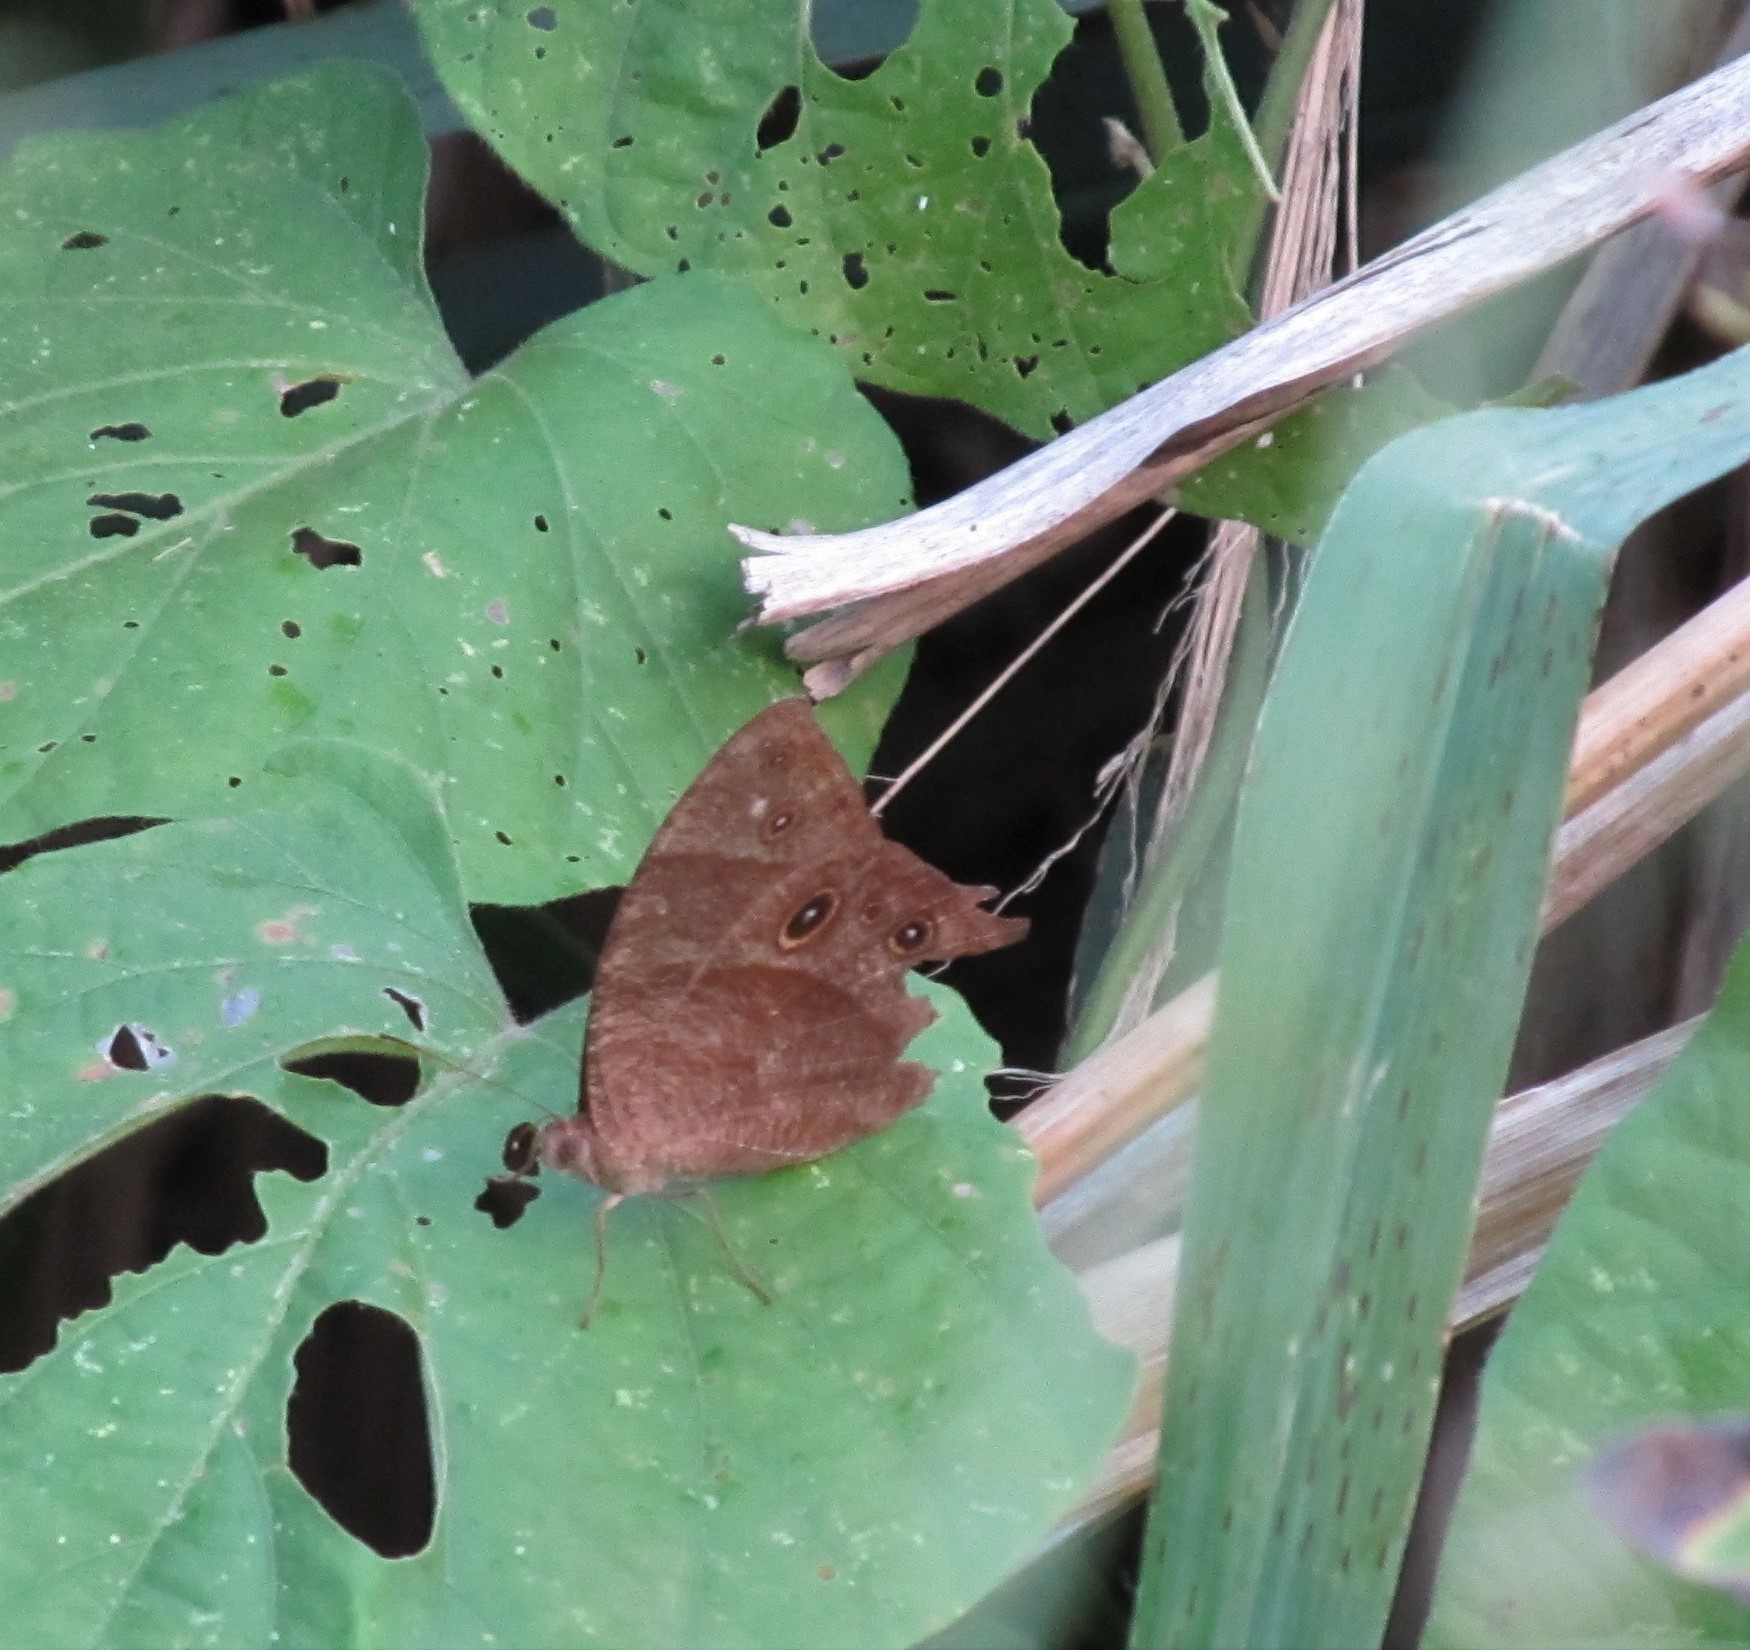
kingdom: Animalia
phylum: Arthropoda
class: Insecta
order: Lepidoptera
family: Nymphalidae
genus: Melanitis
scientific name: Melanitis leda
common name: Twilight brown
